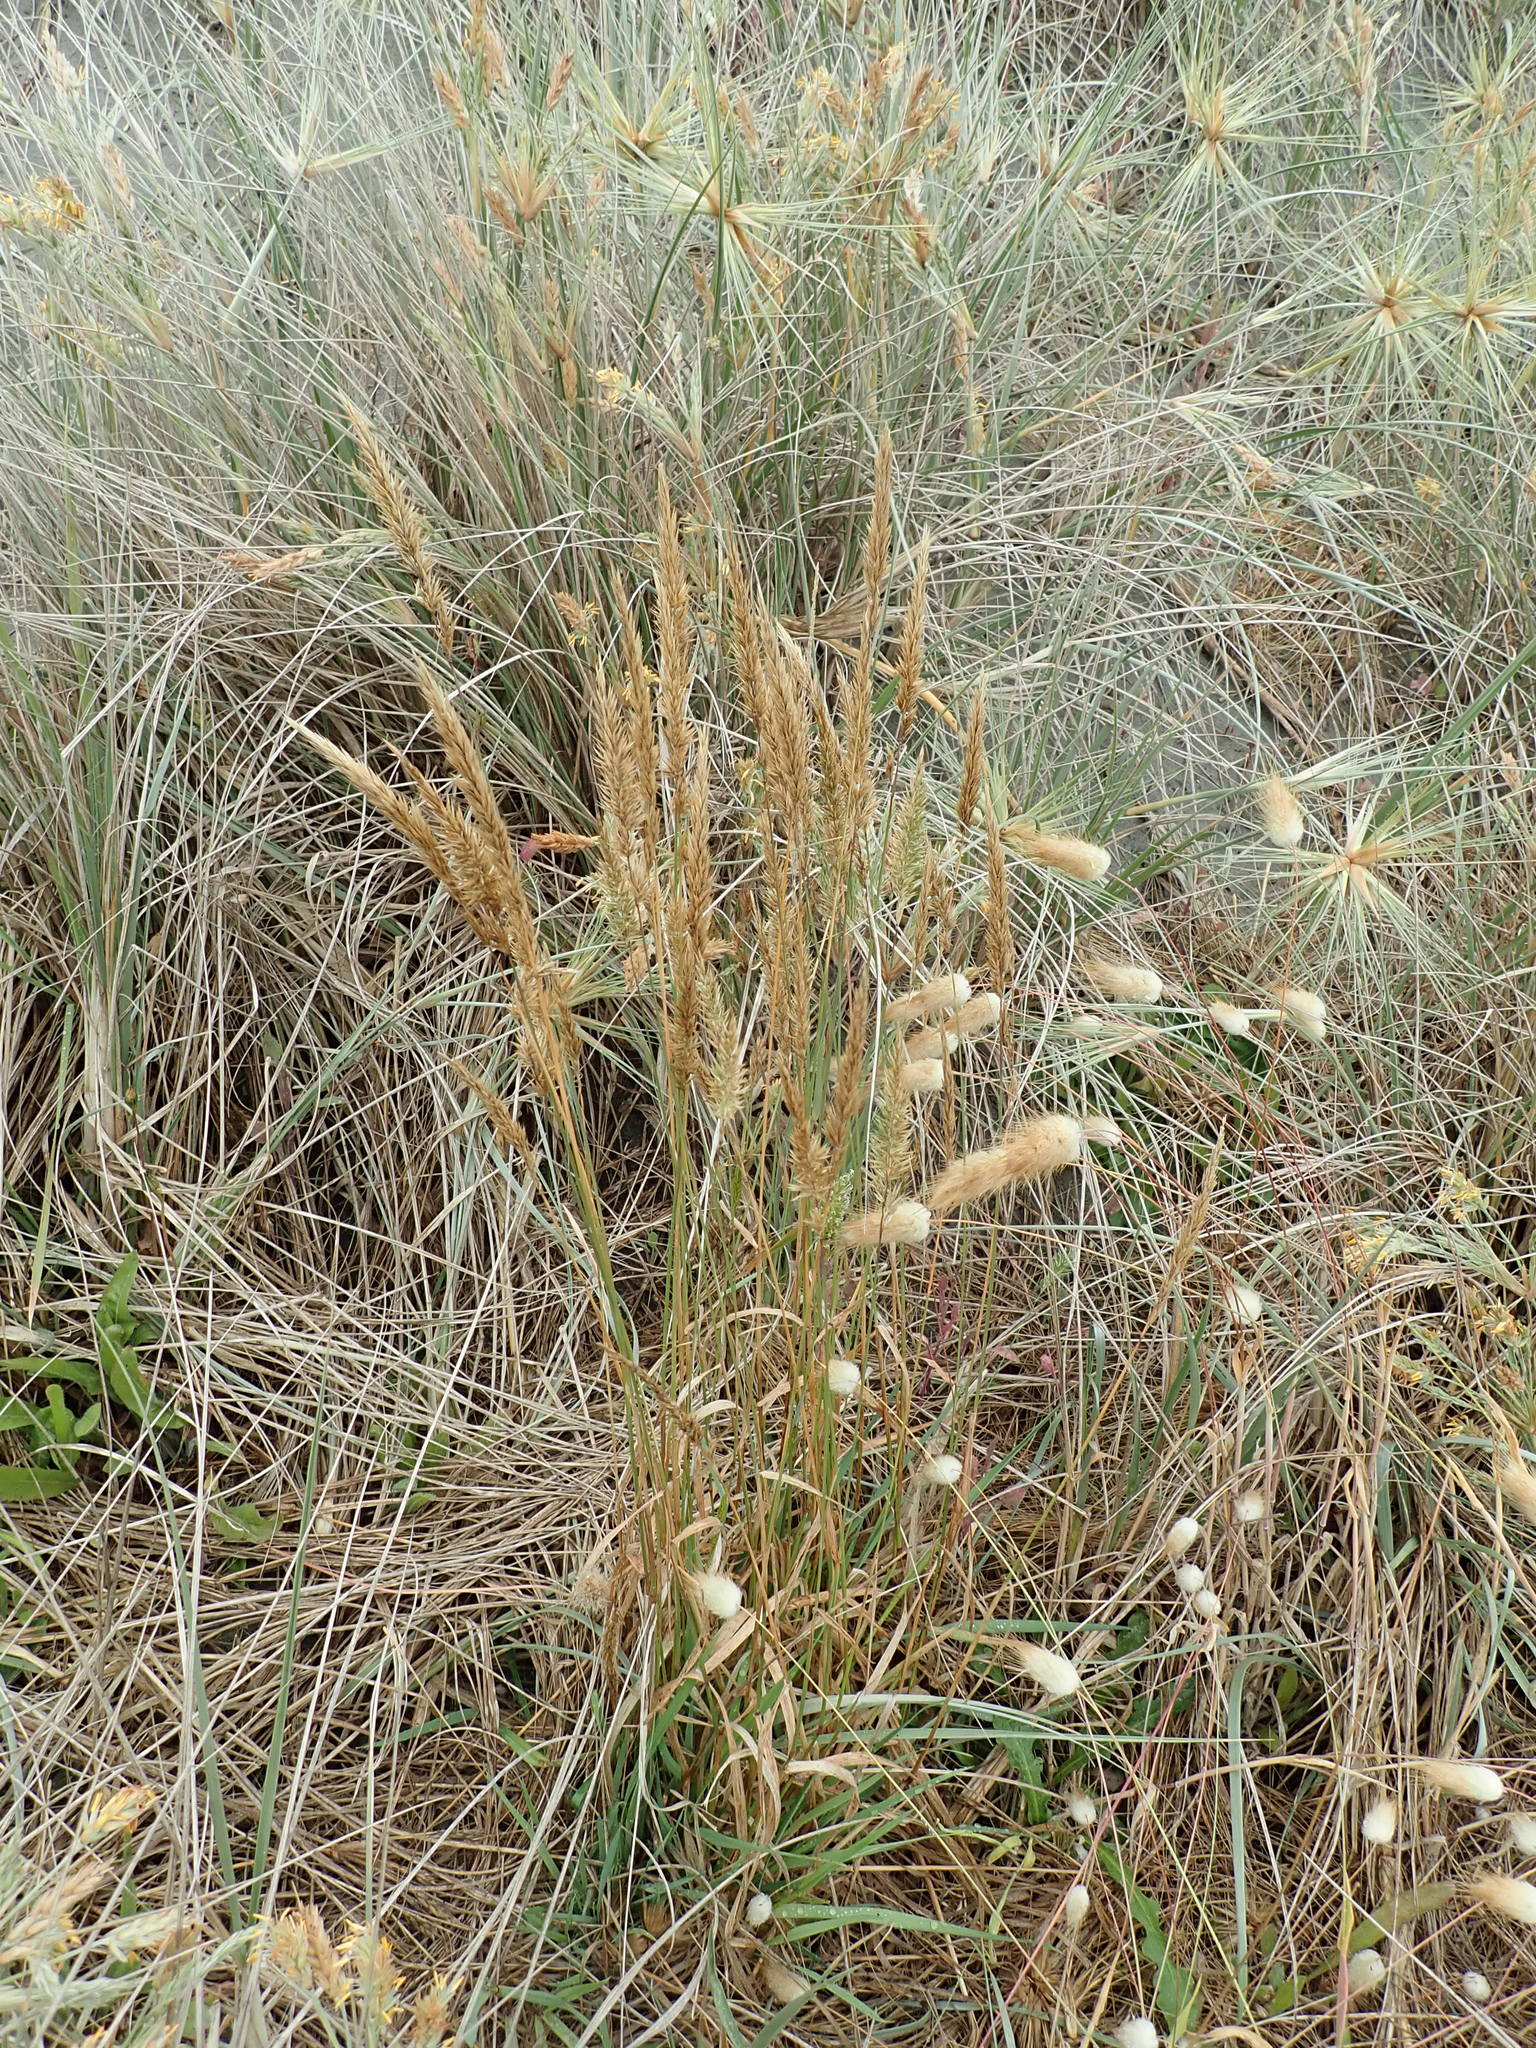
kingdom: Plantae
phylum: Tracheophyta
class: Liliopsida
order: Poales
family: Poaceae
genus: Anthoxanthum
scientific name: Anthoxanthum odoratum
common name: Sweet vernalgrass
